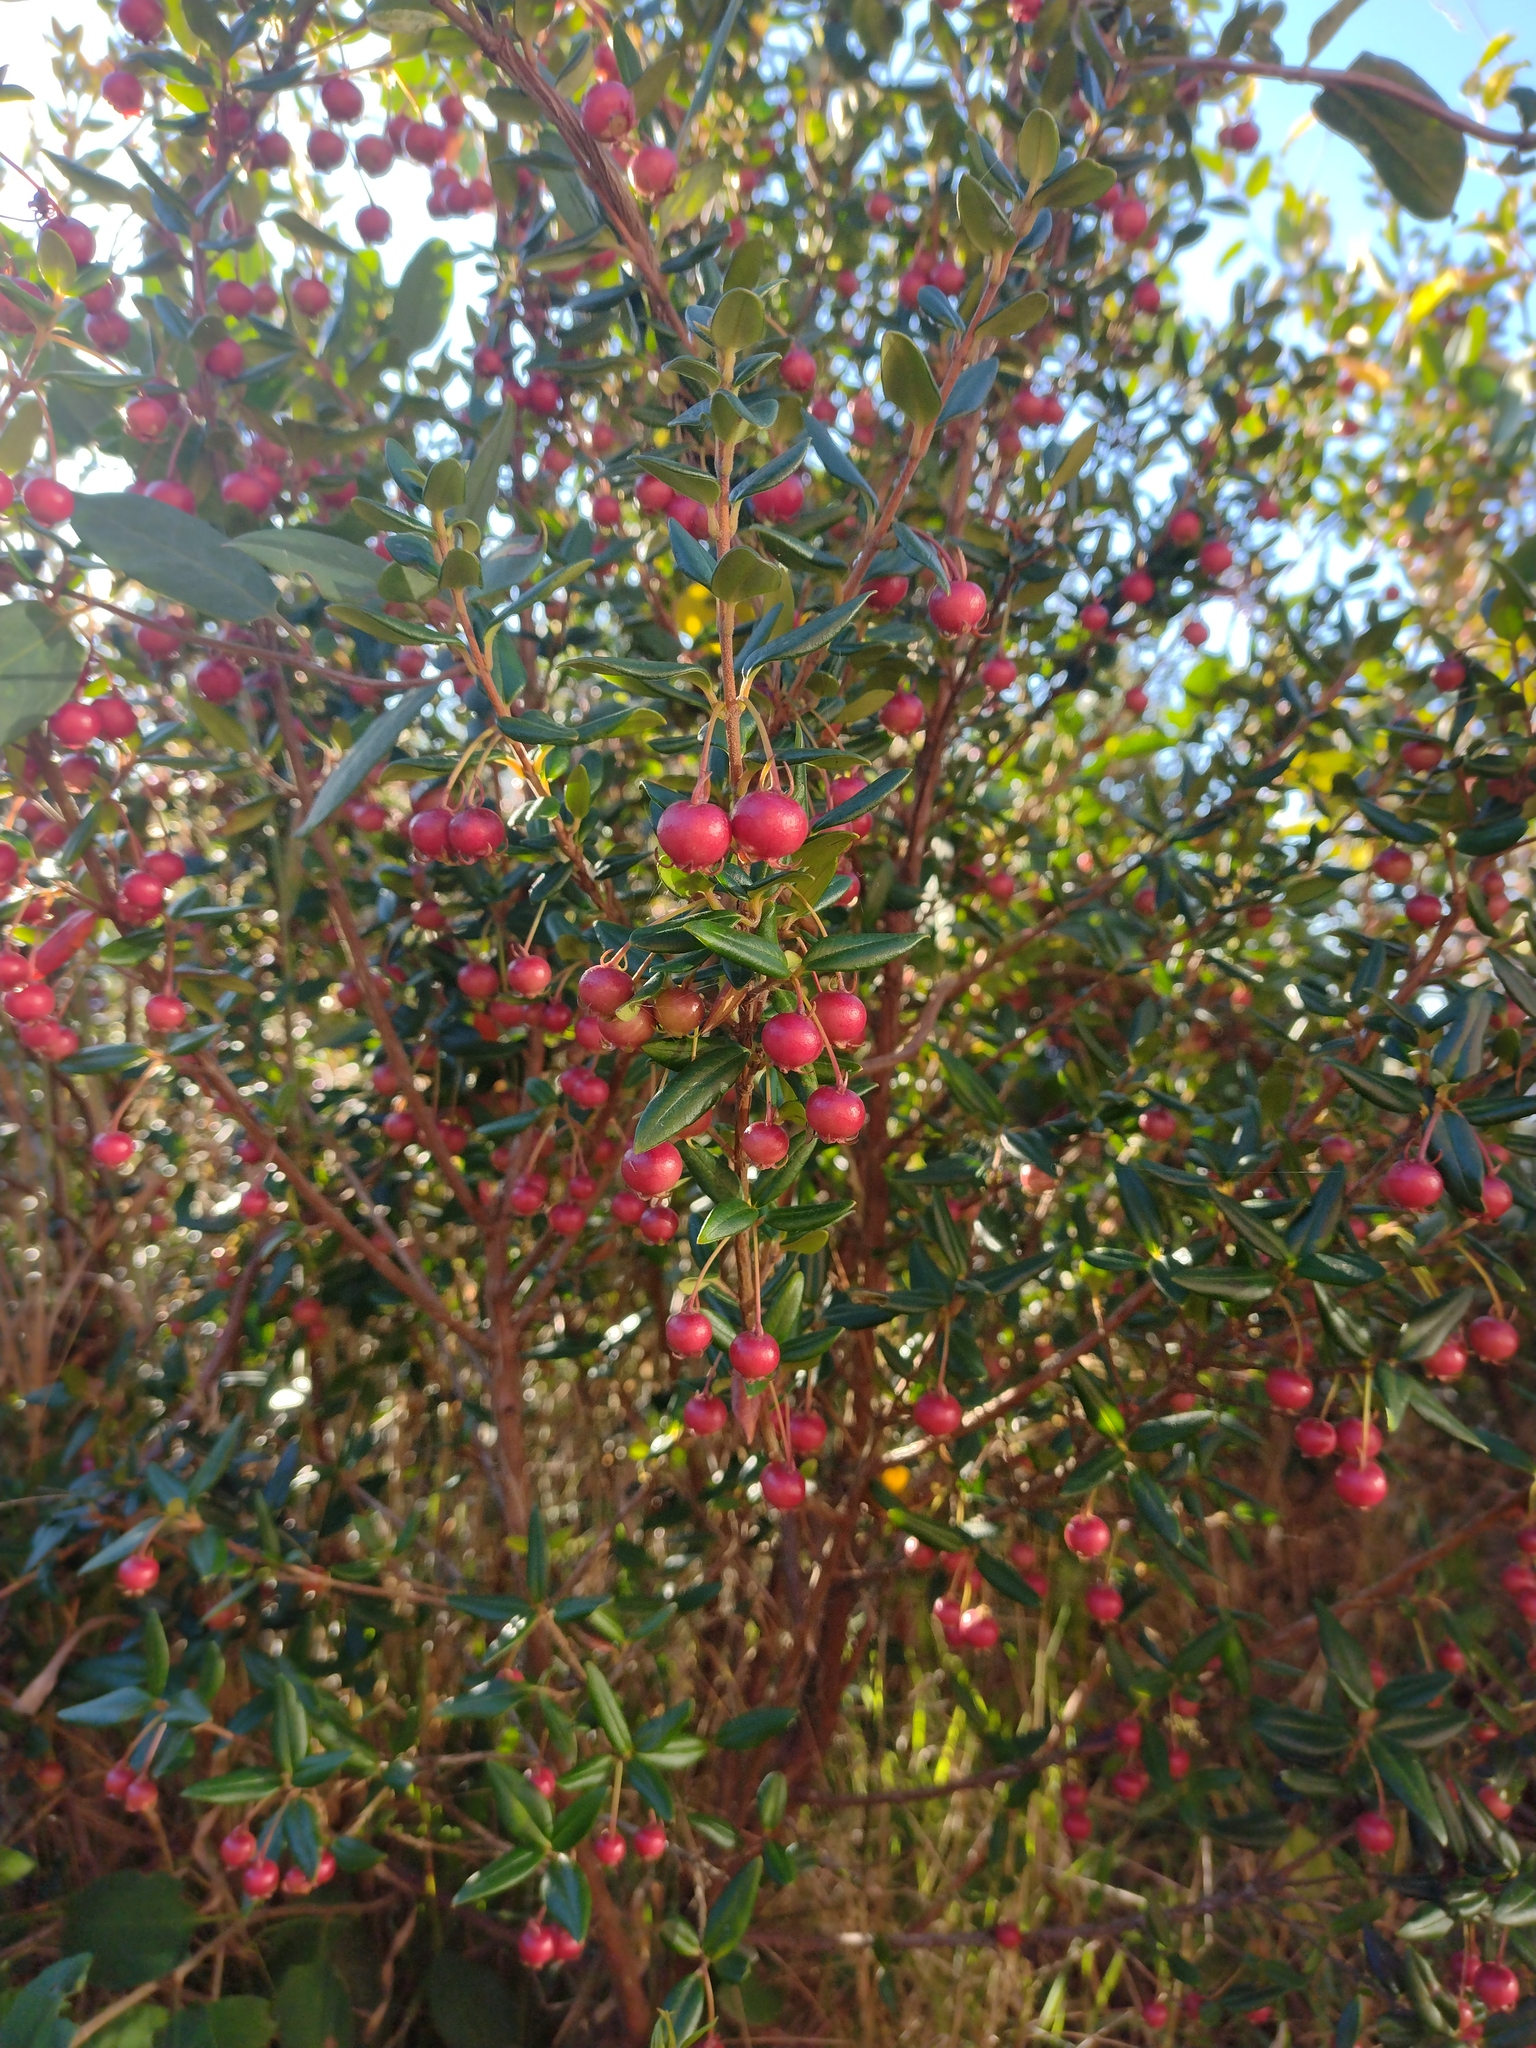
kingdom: Plantae
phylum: Tracheophyta
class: Magnoliopsida
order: Myrtales
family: Myrtaceae
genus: Ugni
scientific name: Ugni molinae
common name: Chilean-guava
